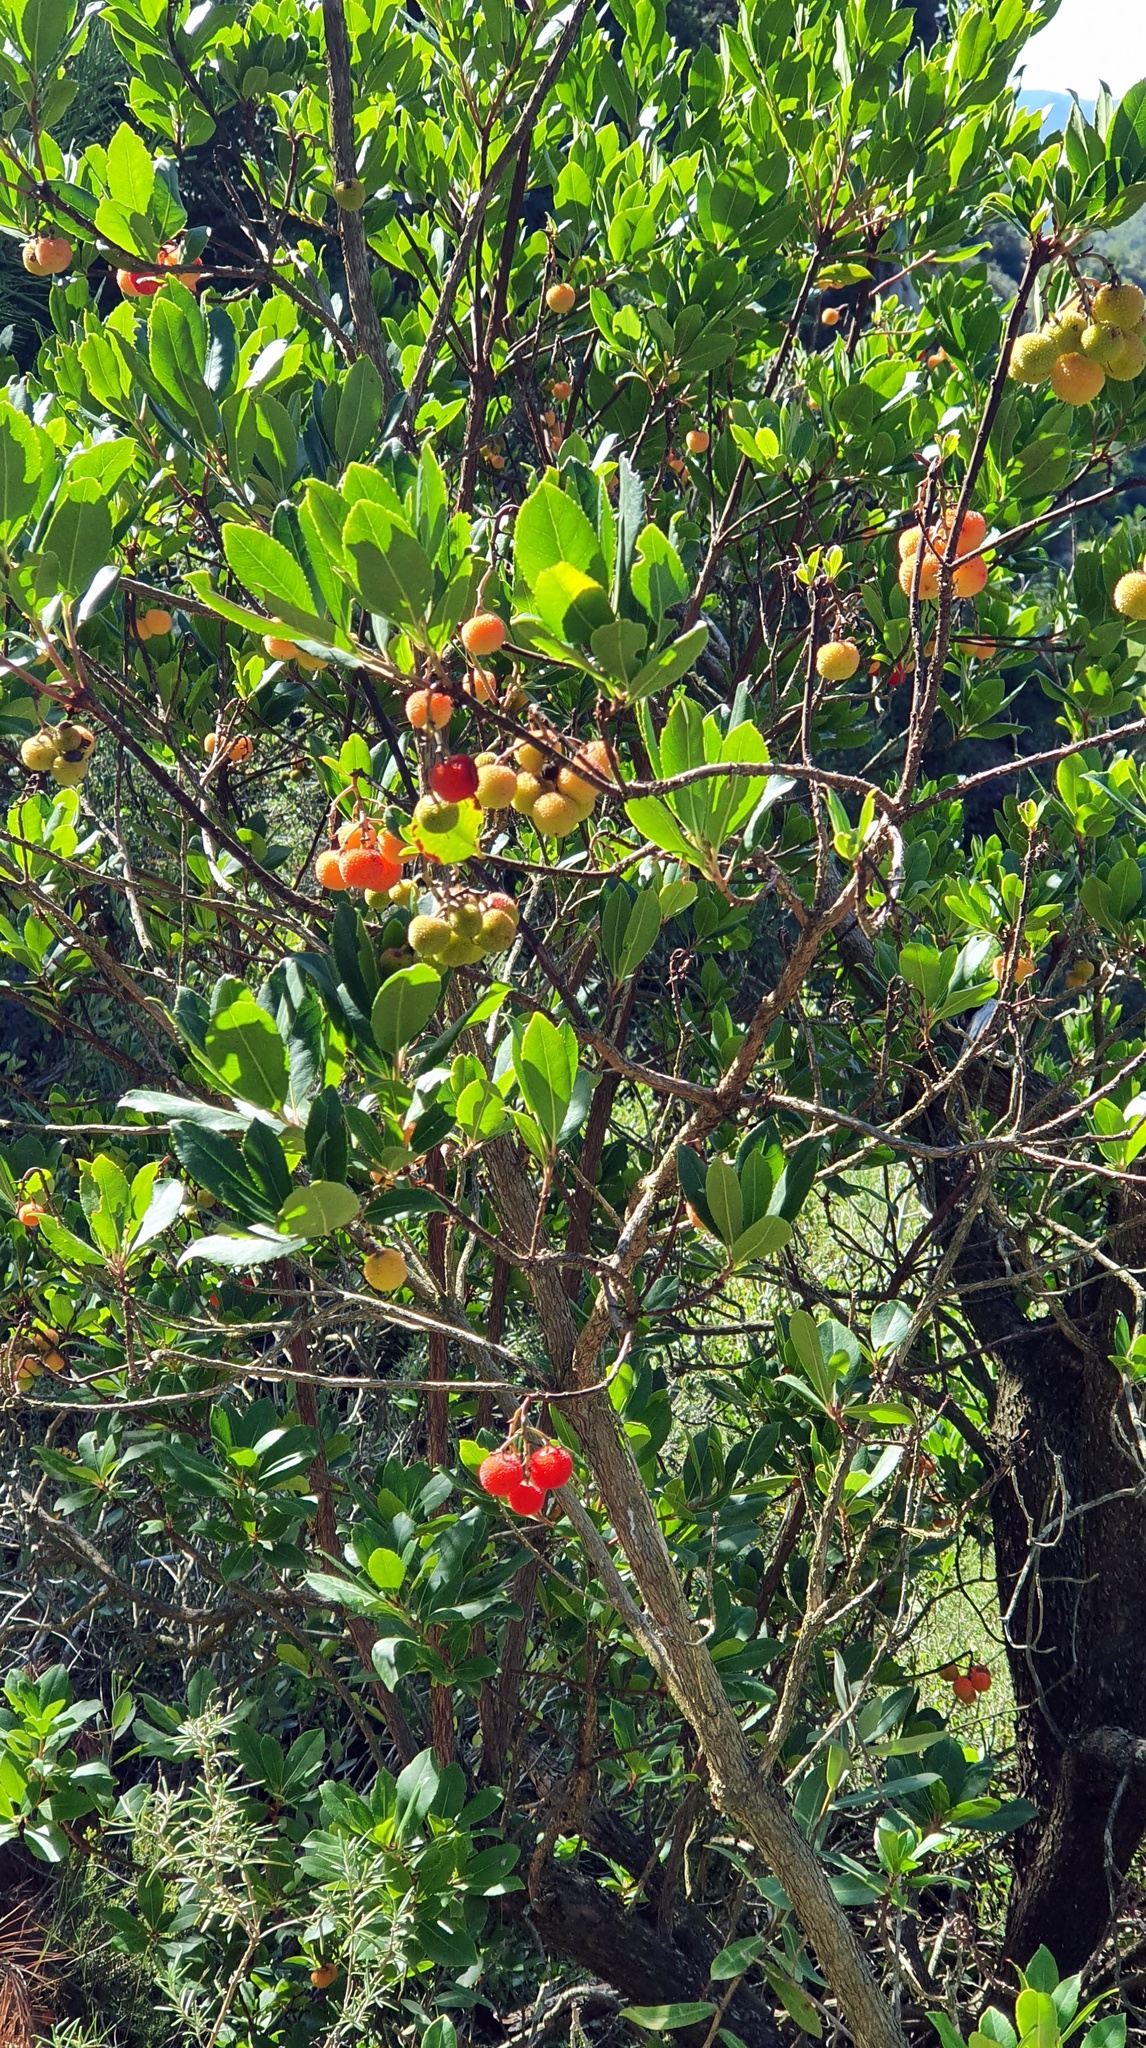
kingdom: Plantae
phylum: Tracheophyta
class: Magnoliopsida
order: Ericales
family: Ericaceae
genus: Arbutus
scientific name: Arbutus unedo
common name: Strawberry-tree
